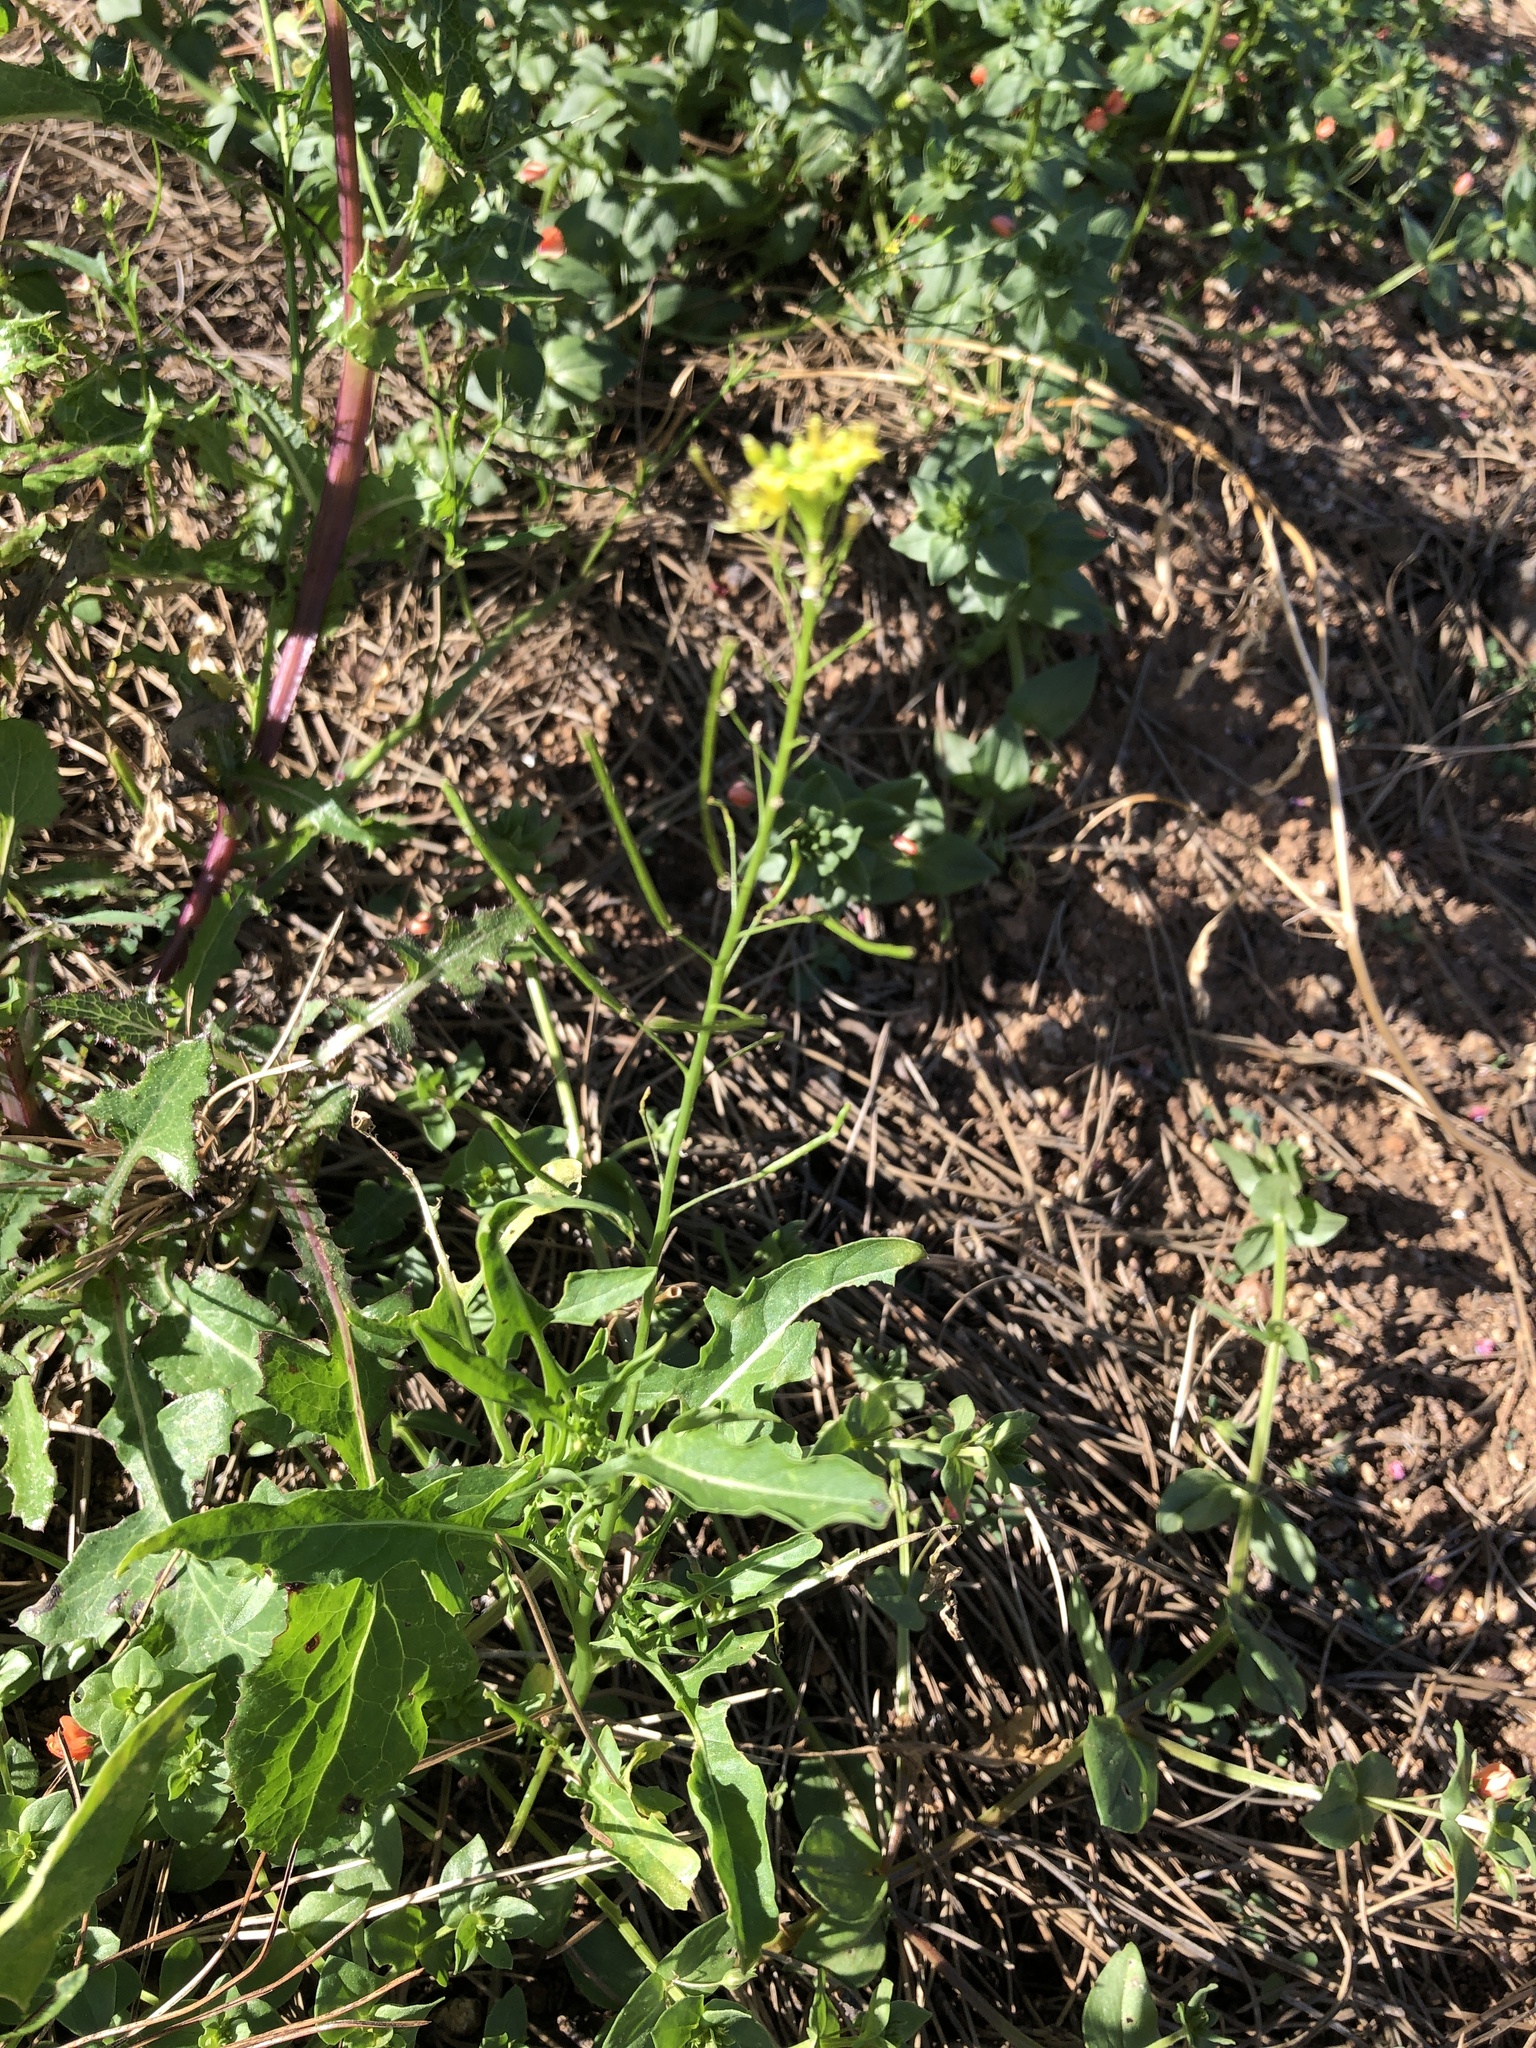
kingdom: Plantae
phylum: Tracheophyta
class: Magnoliopsida
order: Brassicales
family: Brassicaceae
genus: Sisymbrium
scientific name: Sisymbrium irio
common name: London rocket
